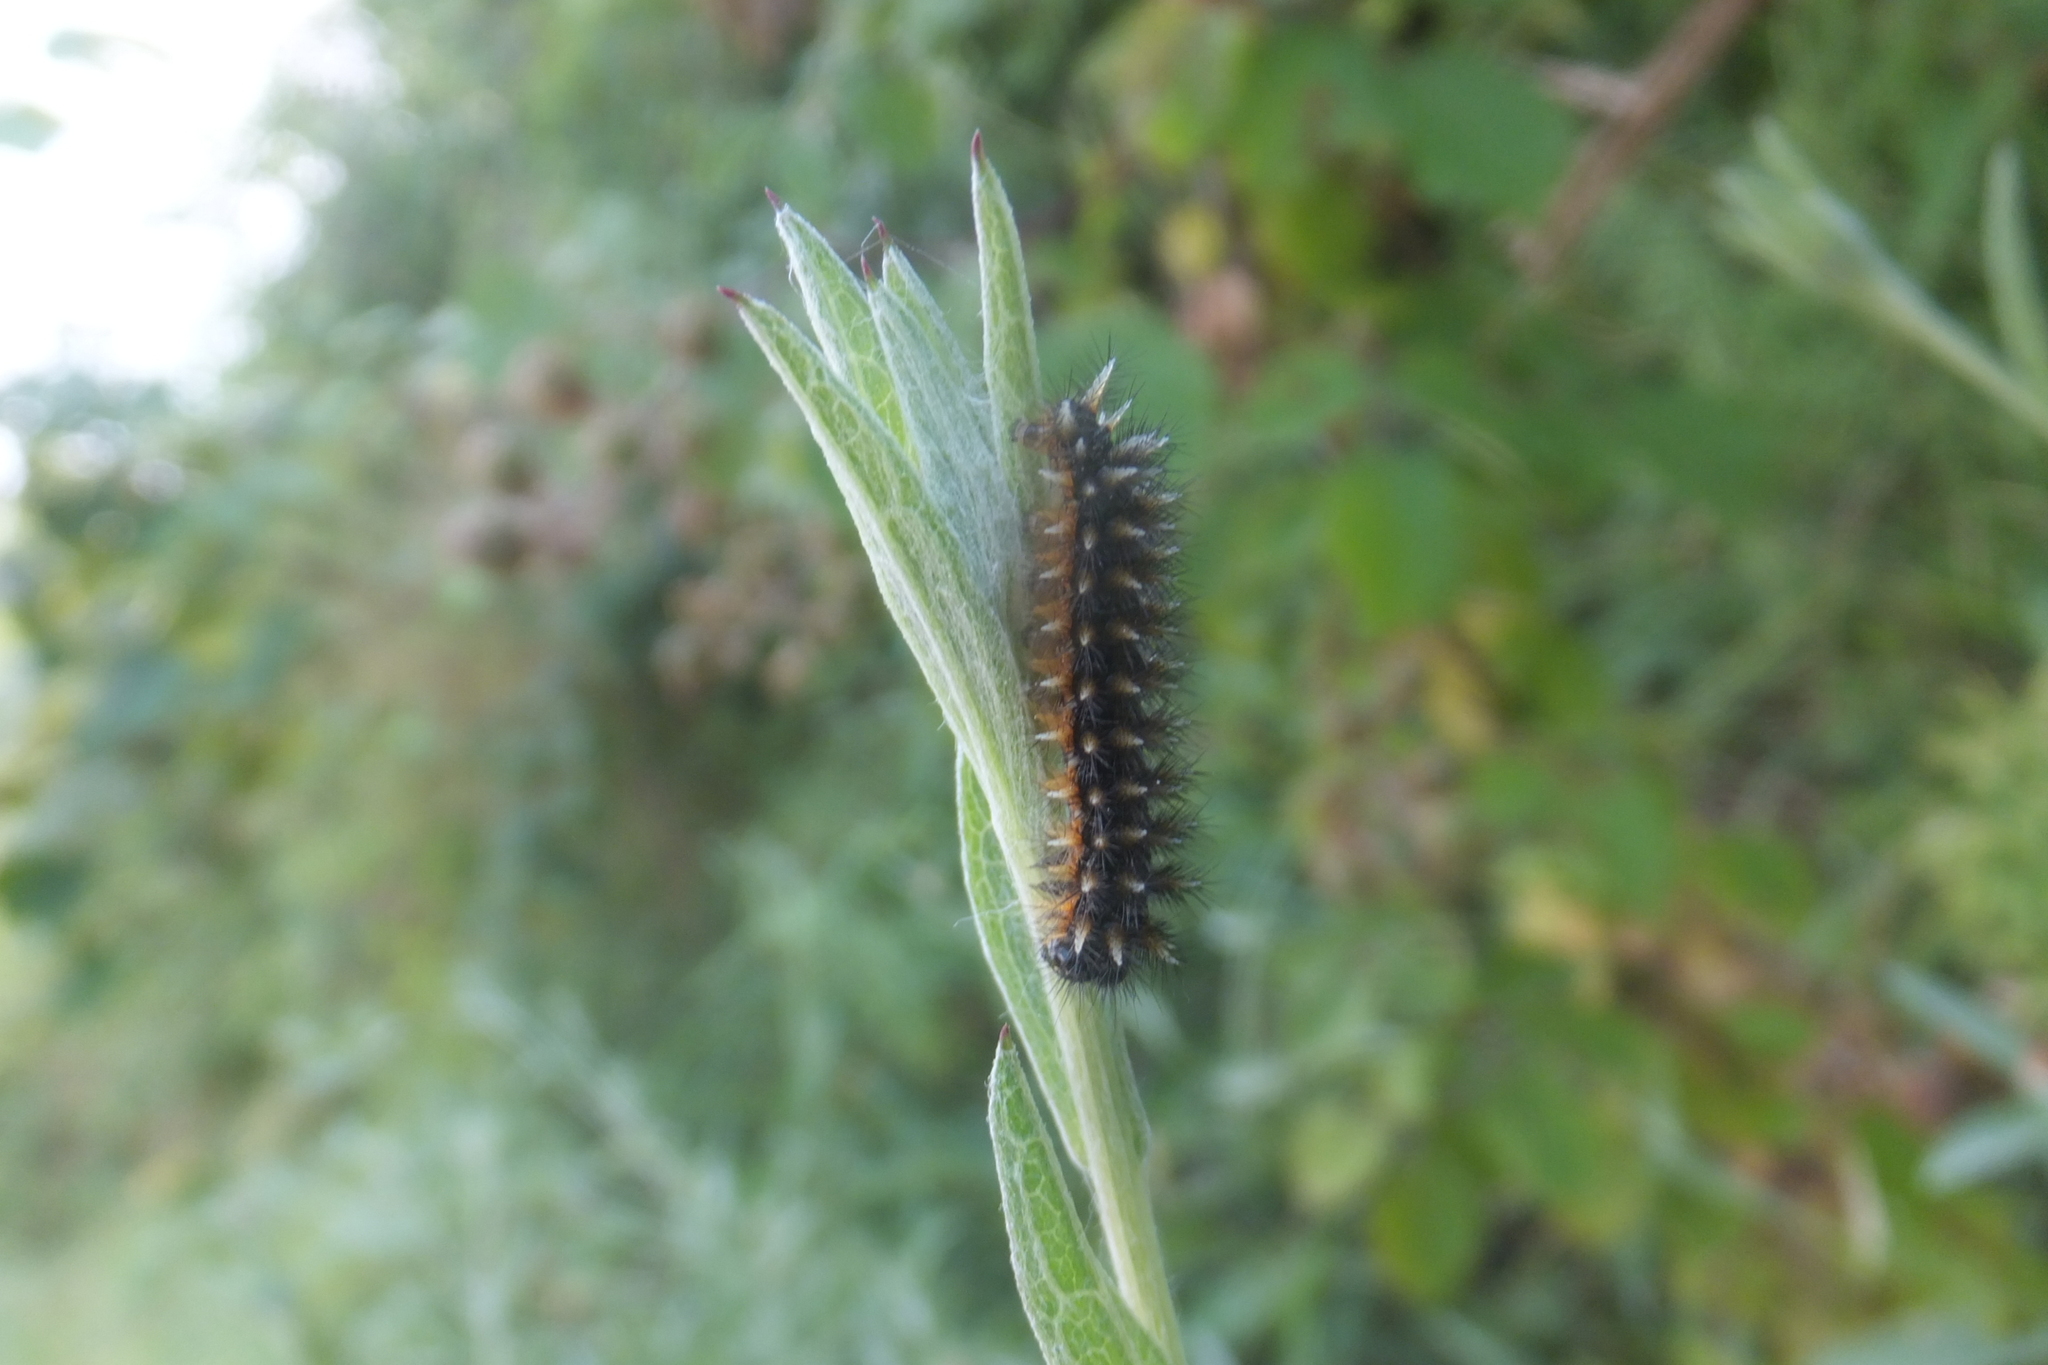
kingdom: Animalia
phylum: Arthropoda
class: Insecta
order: Lepidoptera
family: Nymphalidae
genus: Melitaea
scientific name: Melitaea phoebe
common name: Knapweed fritillary
